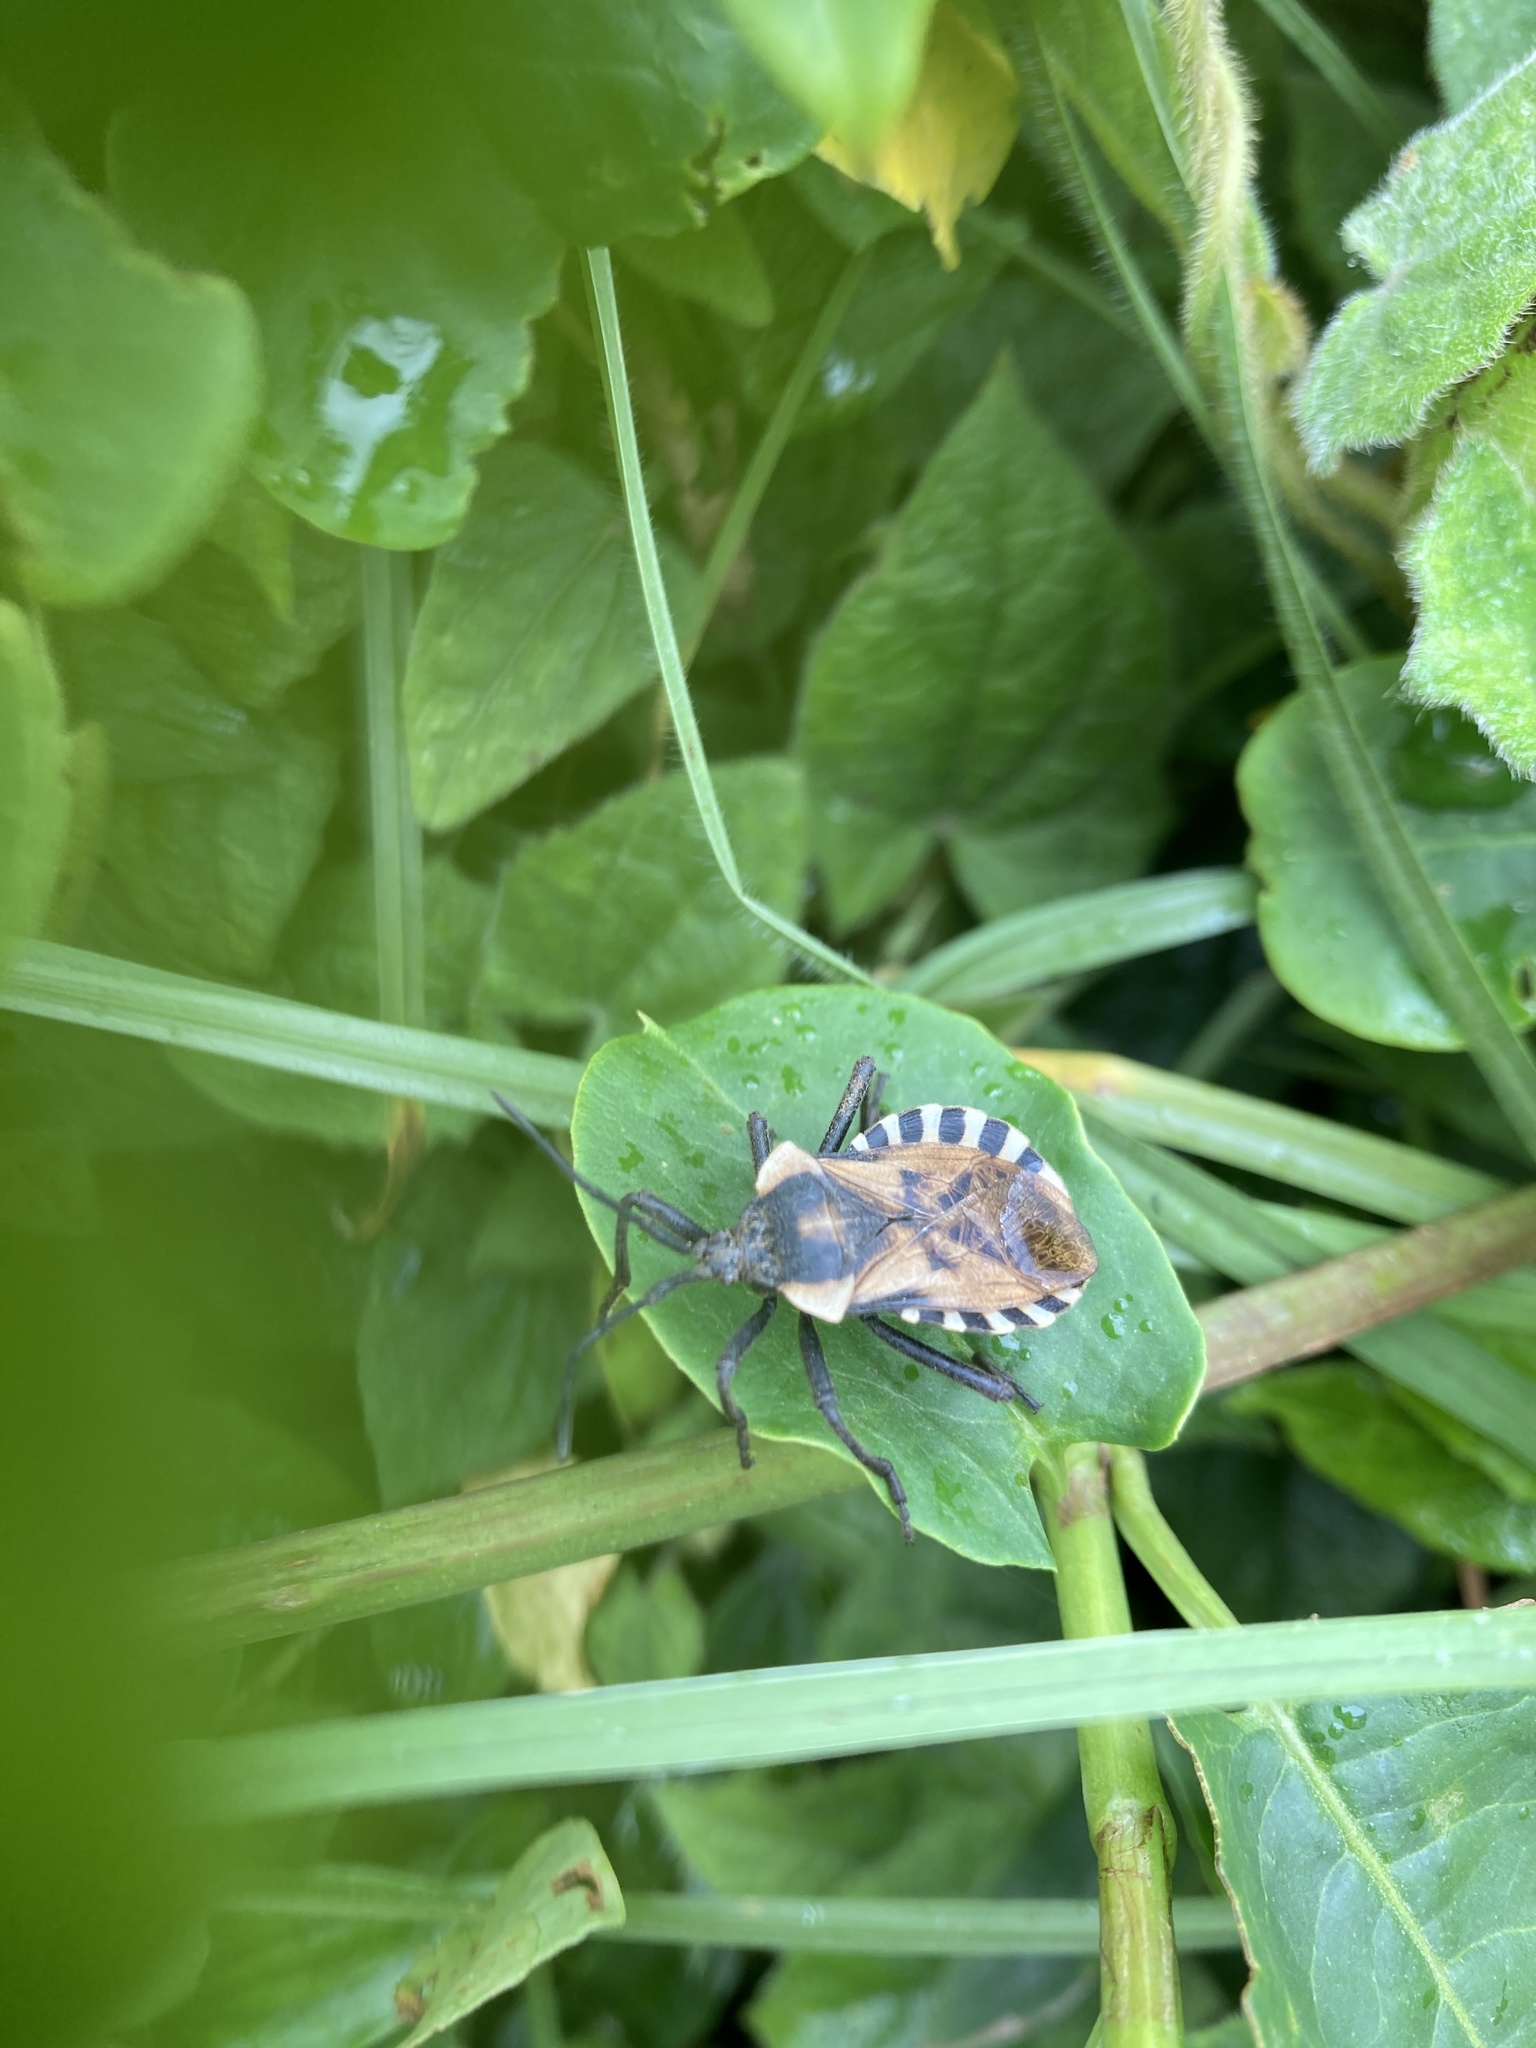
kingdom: Animalia
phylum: Arthropoda
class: Insecta
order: Hemiptera
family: Coreidae
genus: Spartocera
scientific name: Spartocera alternata
